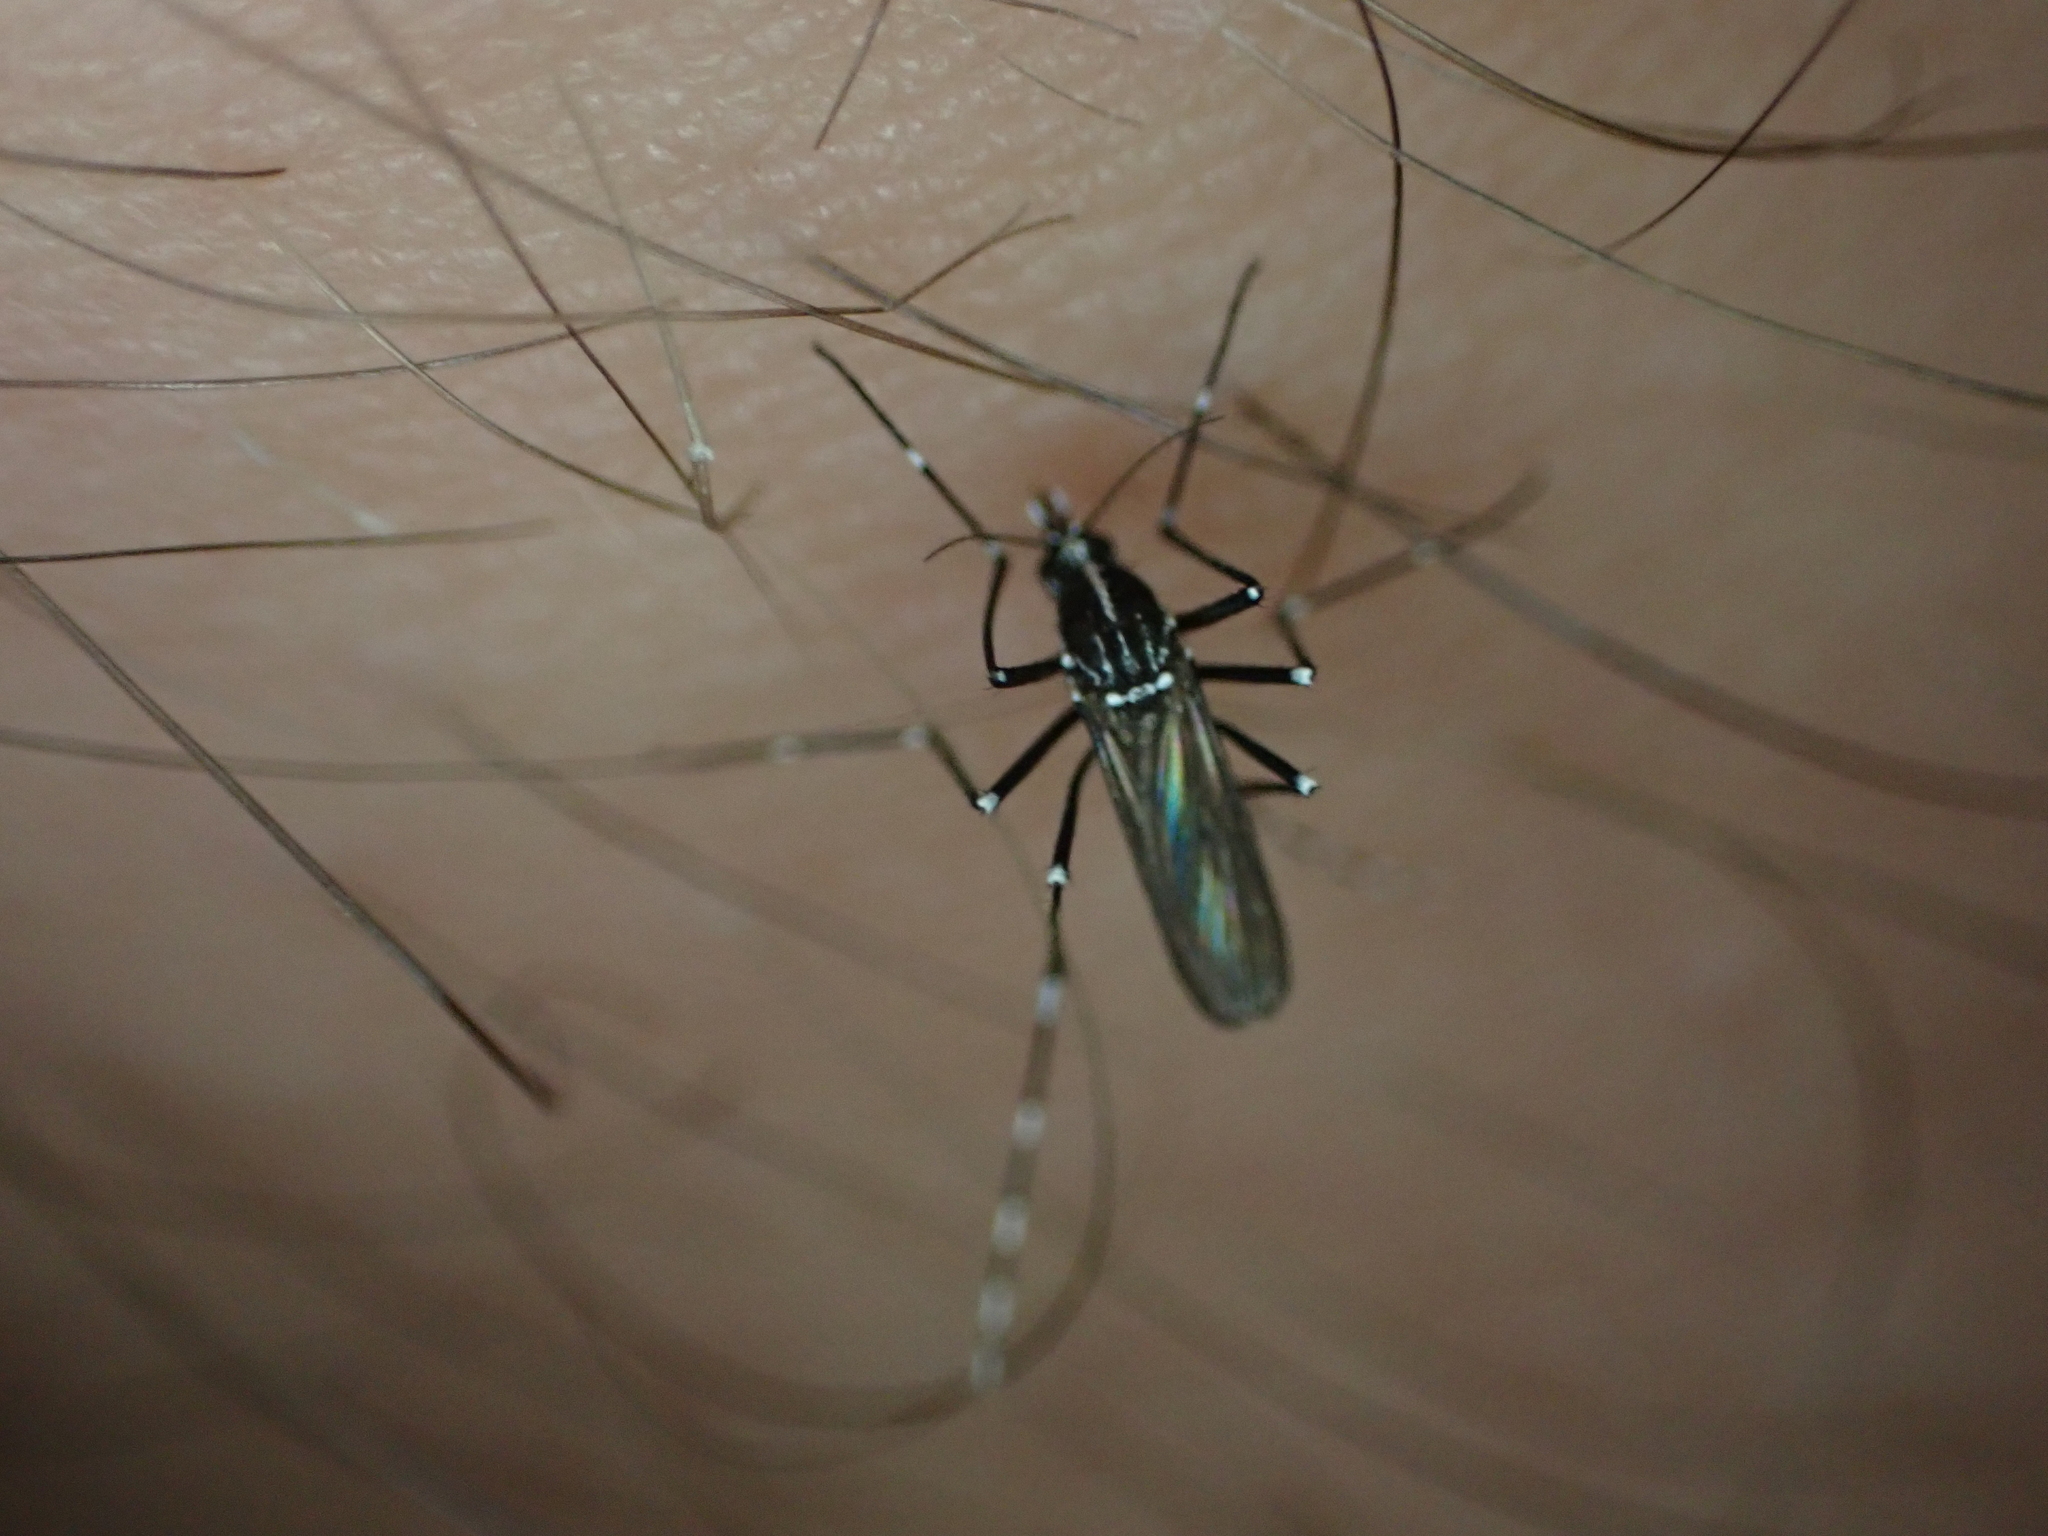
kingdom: Animalia
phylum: Arthropoda
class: Insecta
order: Diptera
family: Culicidae
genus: Aedes
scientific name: Aedes albopictus
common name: Tiger mosquito
